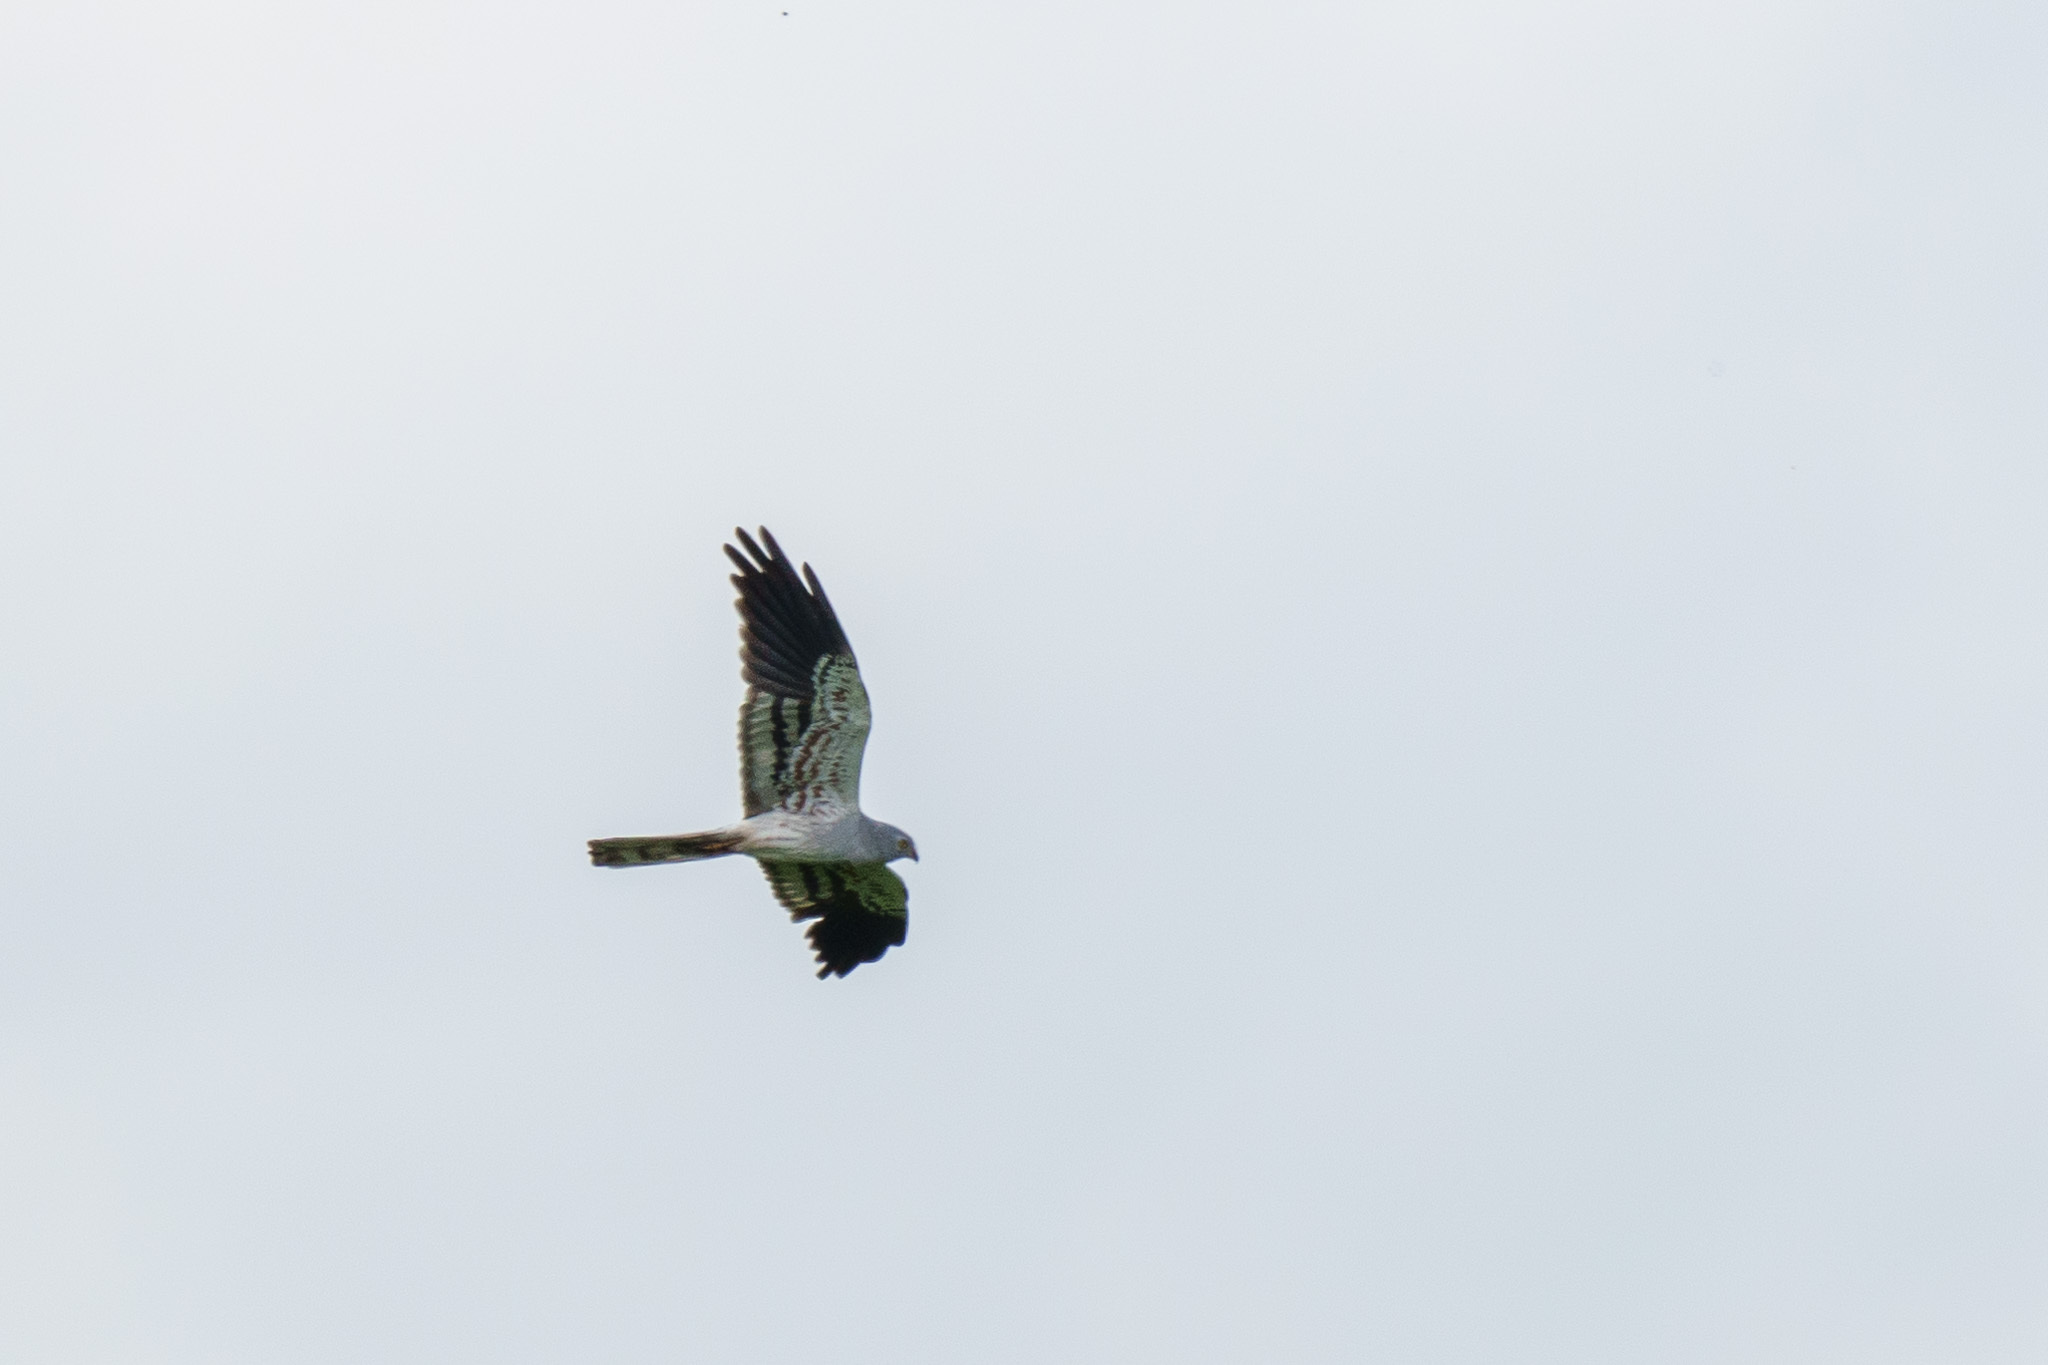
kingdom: Animalia
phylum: Chordata
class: Aves
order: Accipitriformes
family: Accipitridae
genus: Circus
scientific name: Circus pygargus
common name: Montagu's harrier
